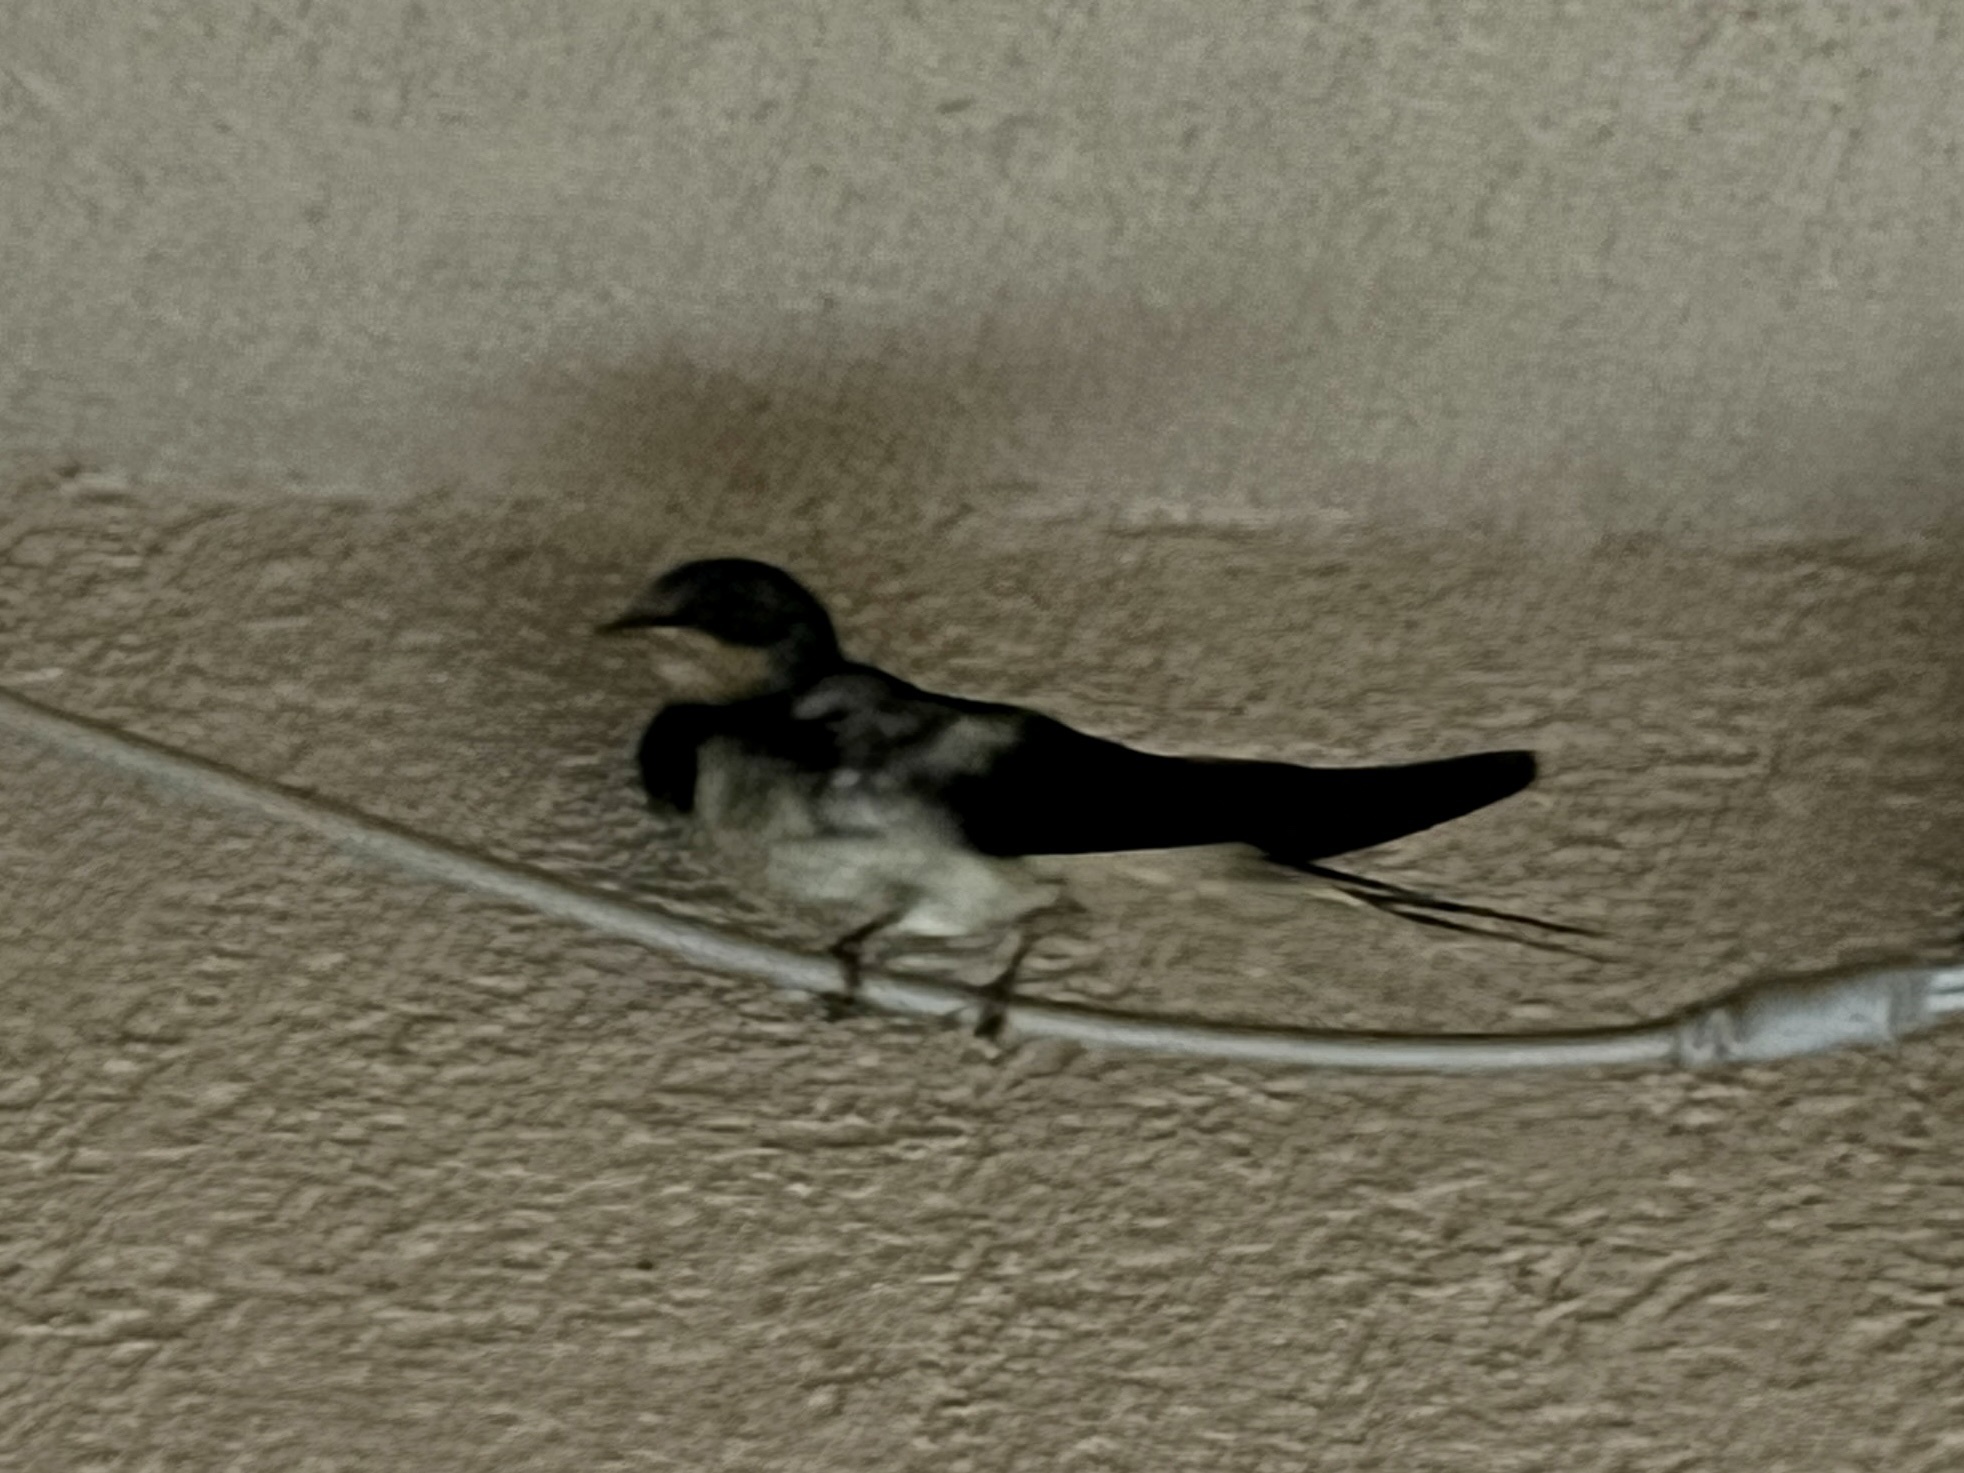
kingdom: Animalia
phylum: Chordata
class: Aves
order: Passeriformes
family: Hirundinidae
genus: Hirundo
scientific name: Hirundo rustica
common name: Barn swallow
